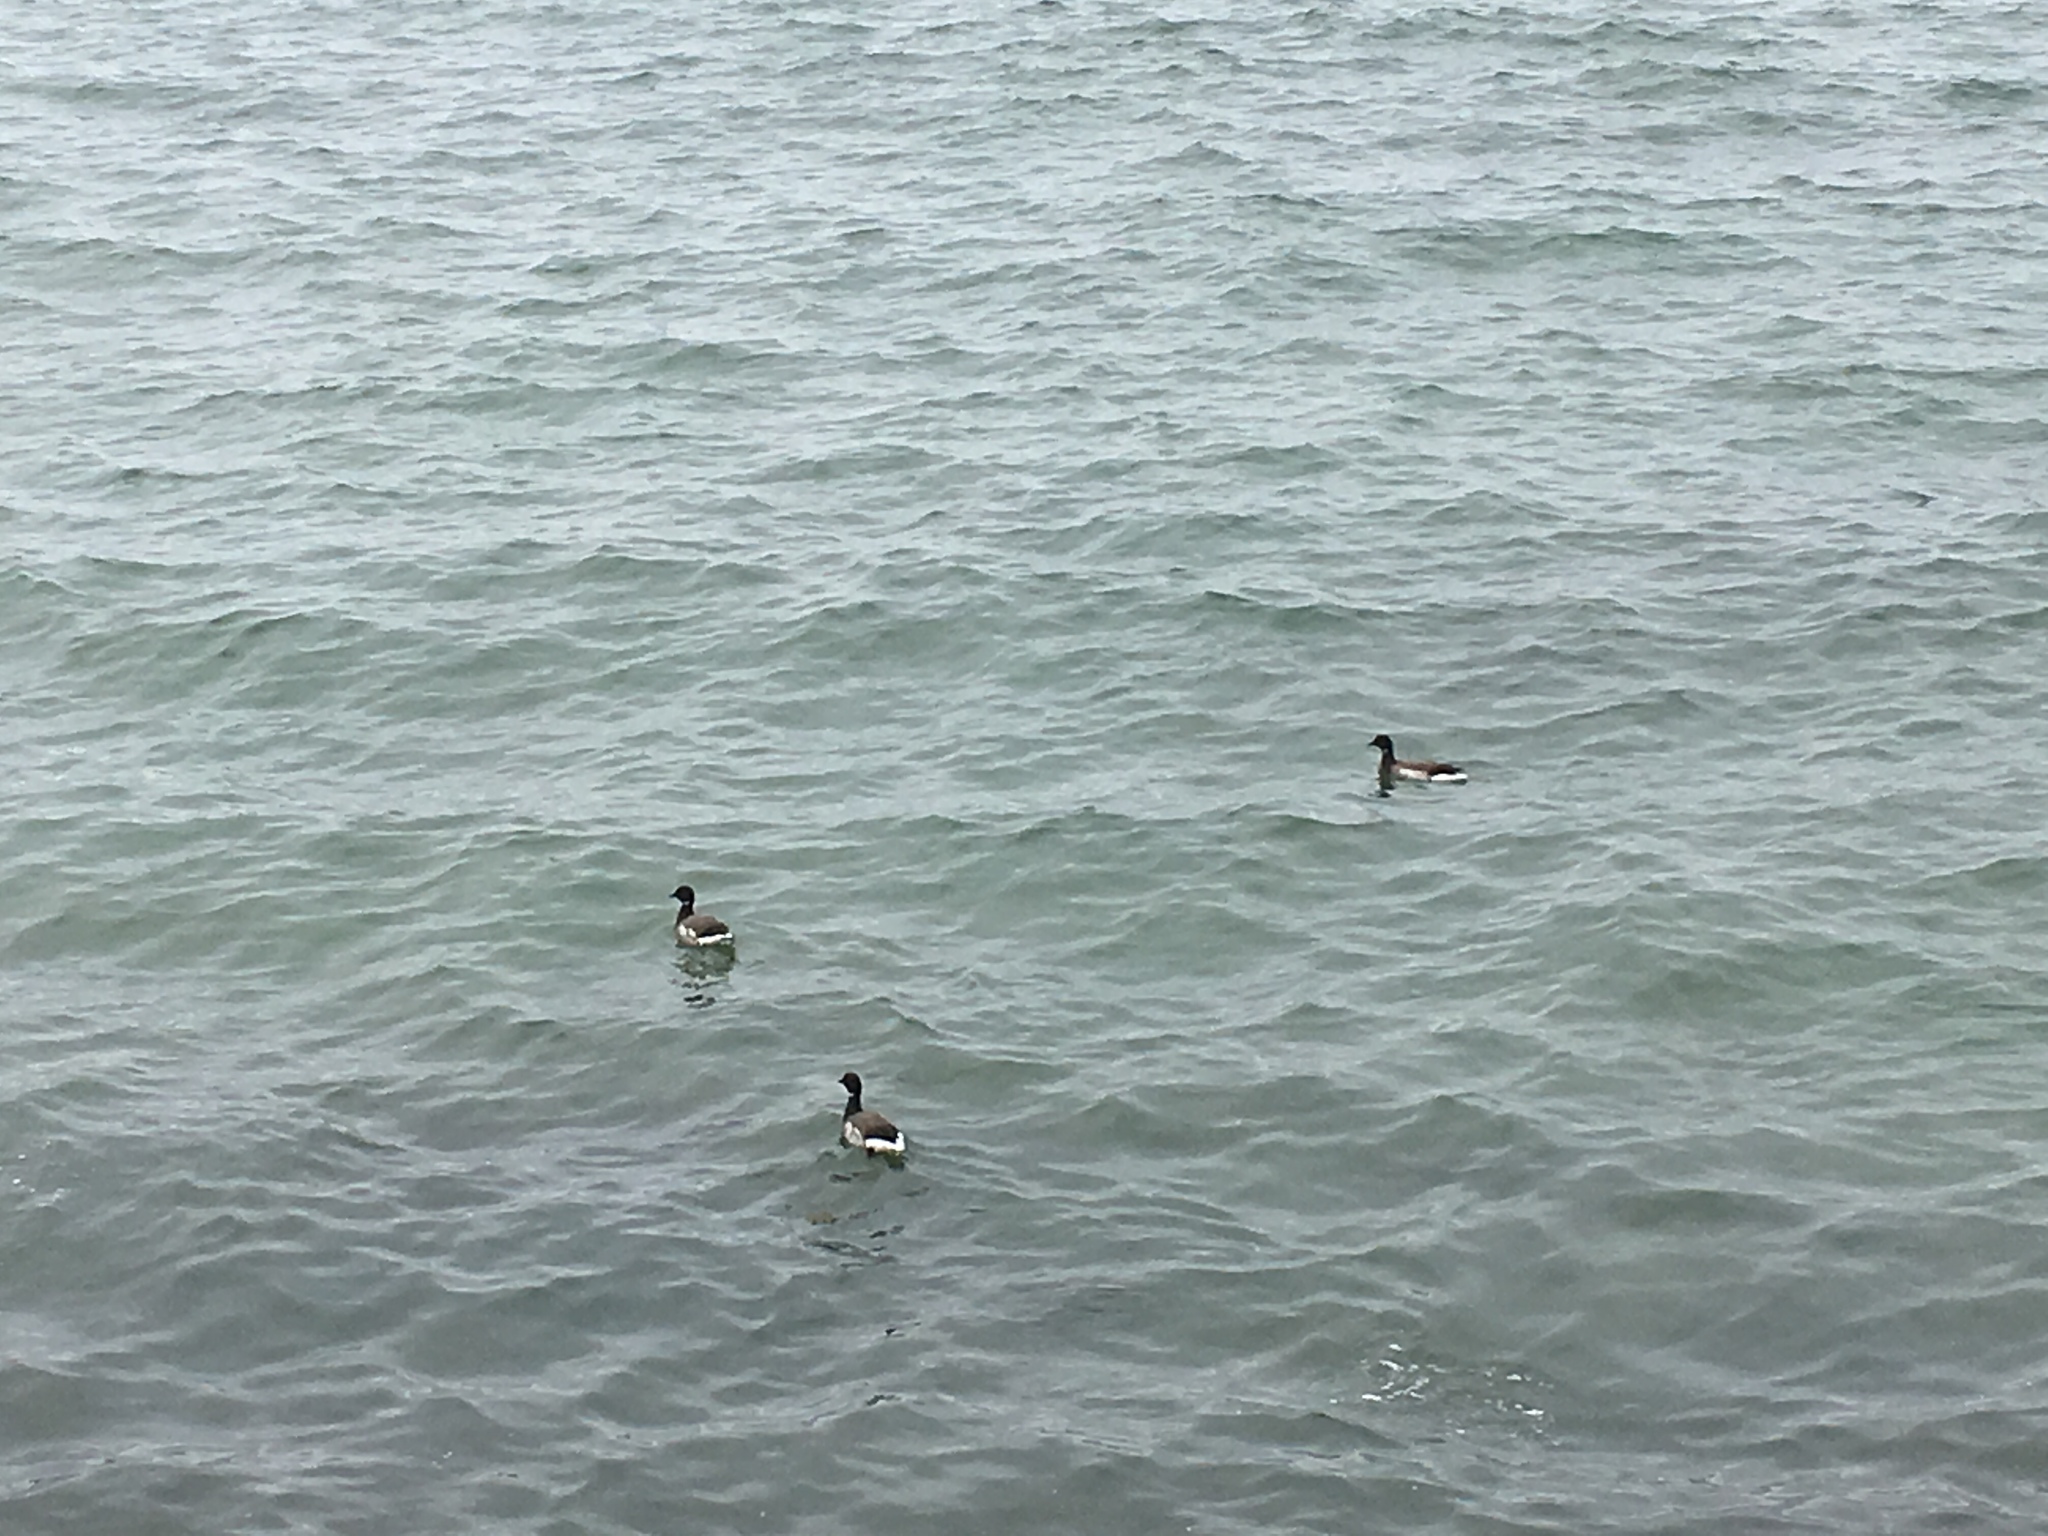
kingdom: Animalia
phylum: Chordata
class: Aves
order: Anseriformes
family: Anatidae
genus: Branta
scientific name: Branta bernicla
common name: Brant goose
